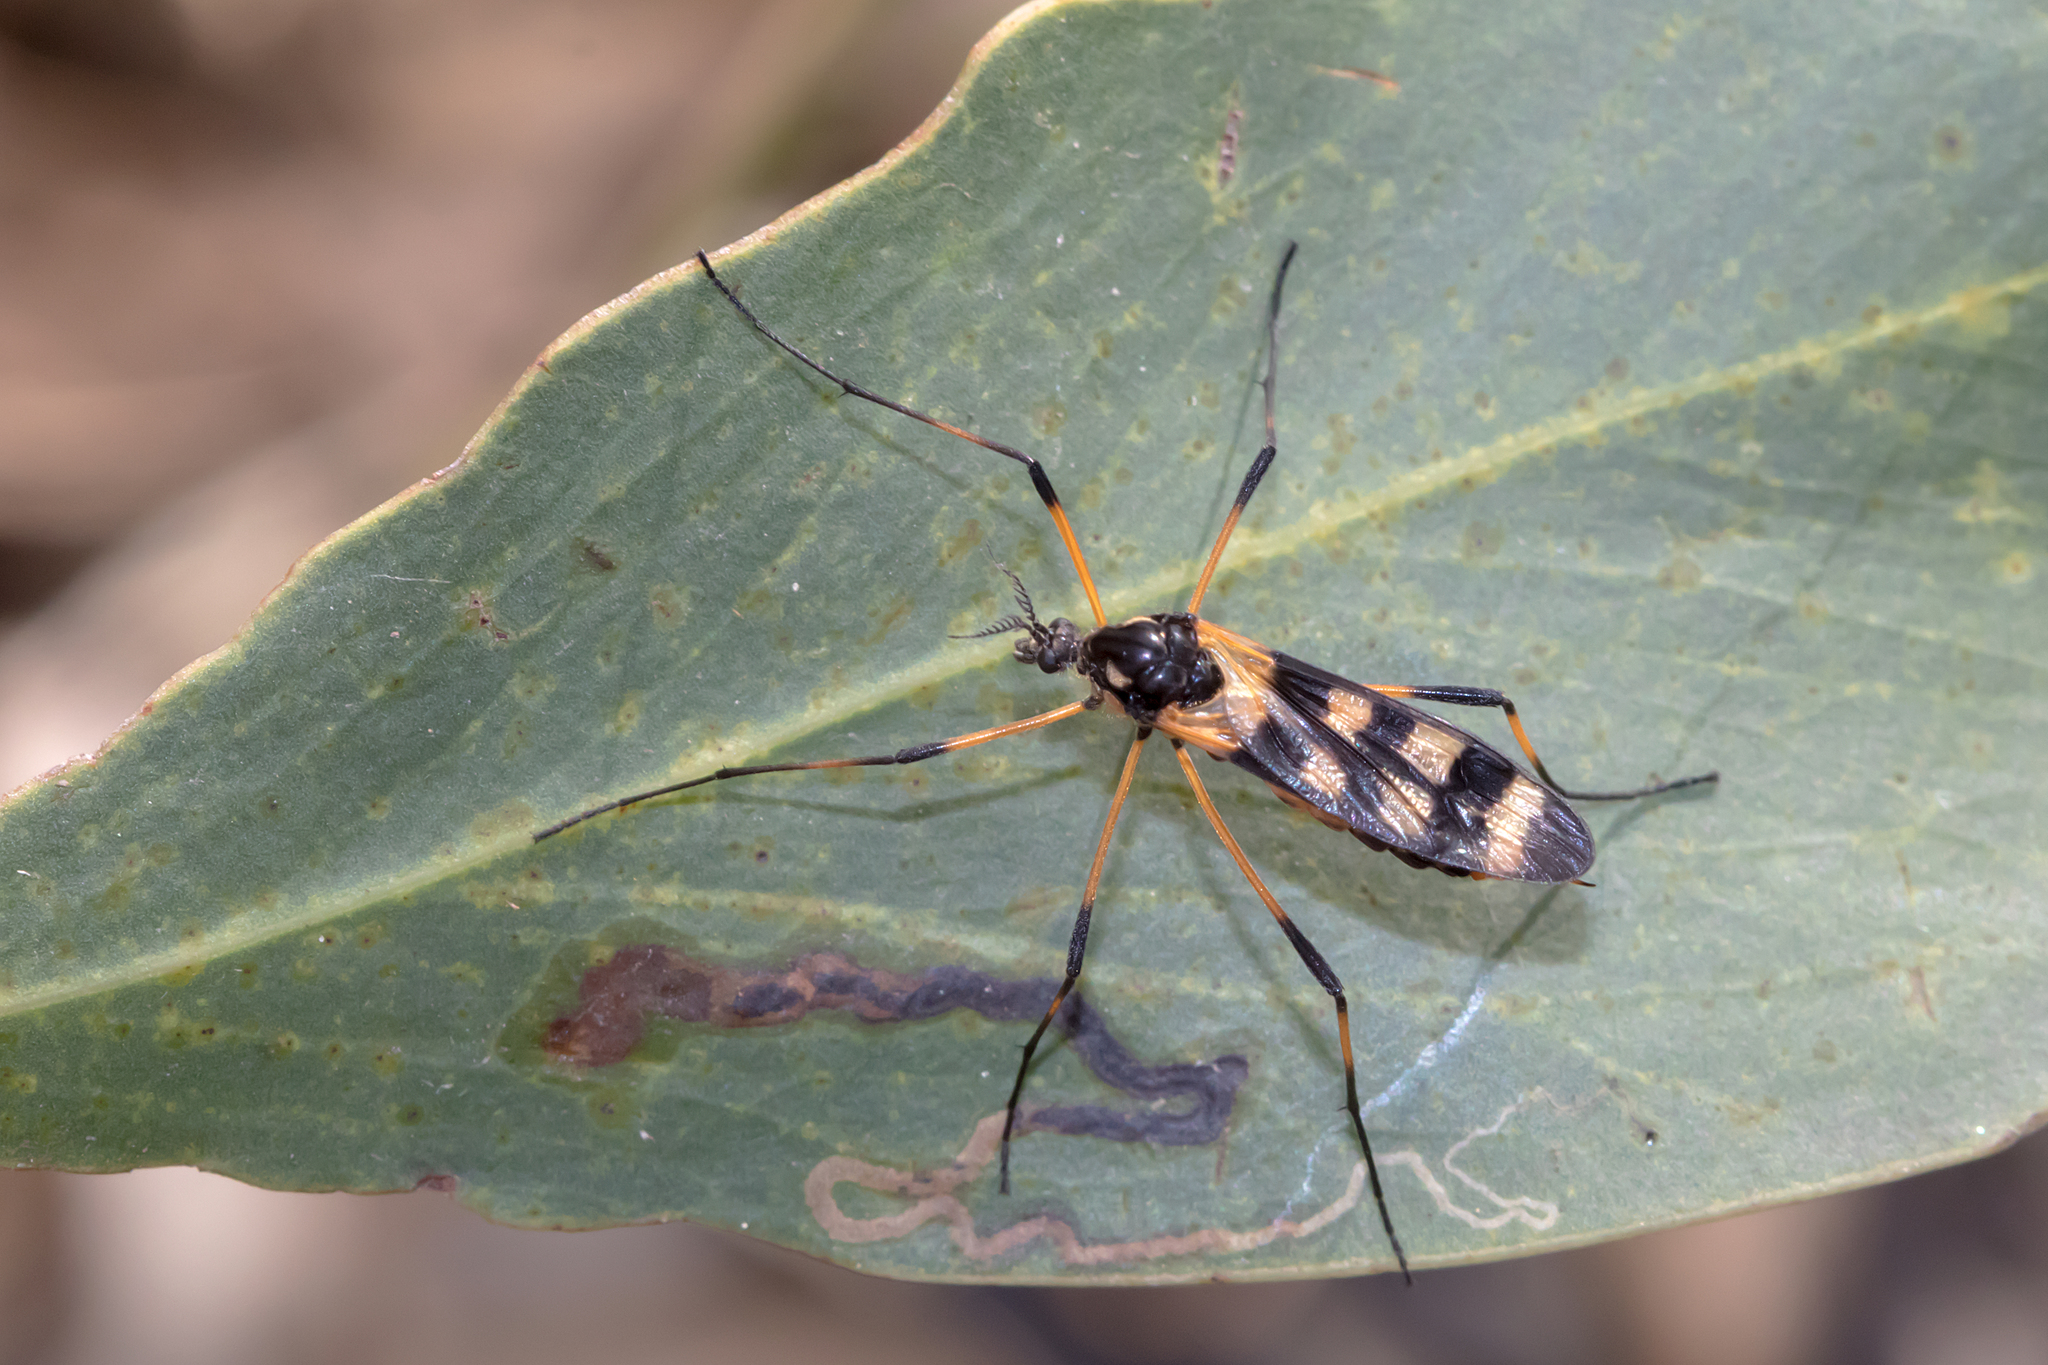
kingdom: Animalia
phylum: Arthropoda
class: Insecta
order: Diptera
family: Limoniidae
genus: Gynoplistia
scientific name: Gynoplistia bella
